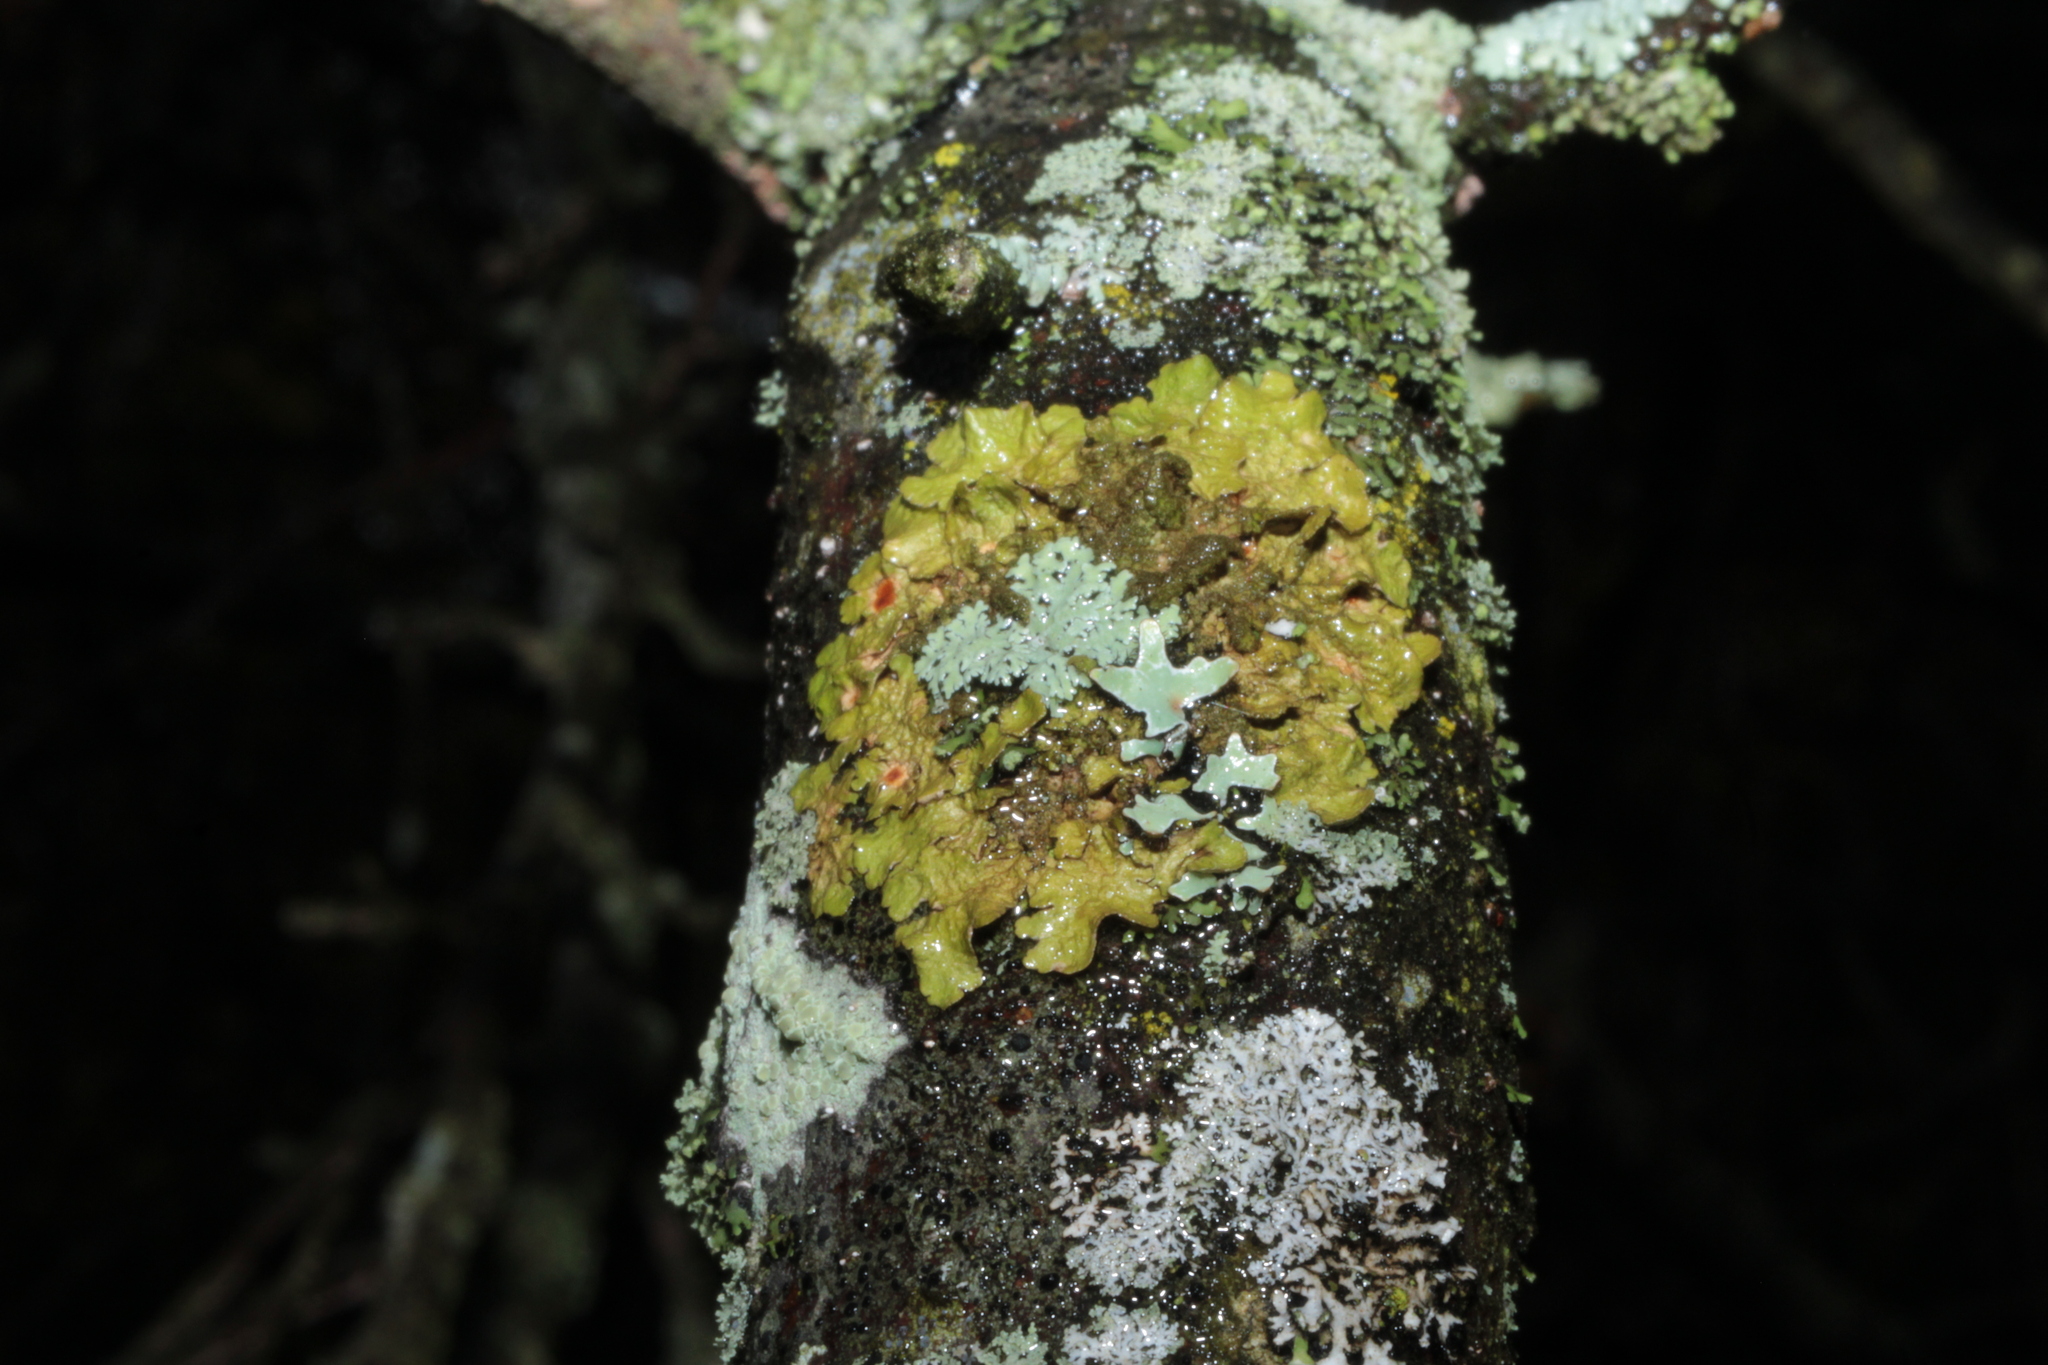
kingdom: Fungi
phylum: Ascomycota
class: Lecanoromycetes
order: Lecanorales
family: Parmeliaceae
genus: Melanelixia
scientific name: Melanelixia subaurifera
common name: Abraded camouflage lichen
